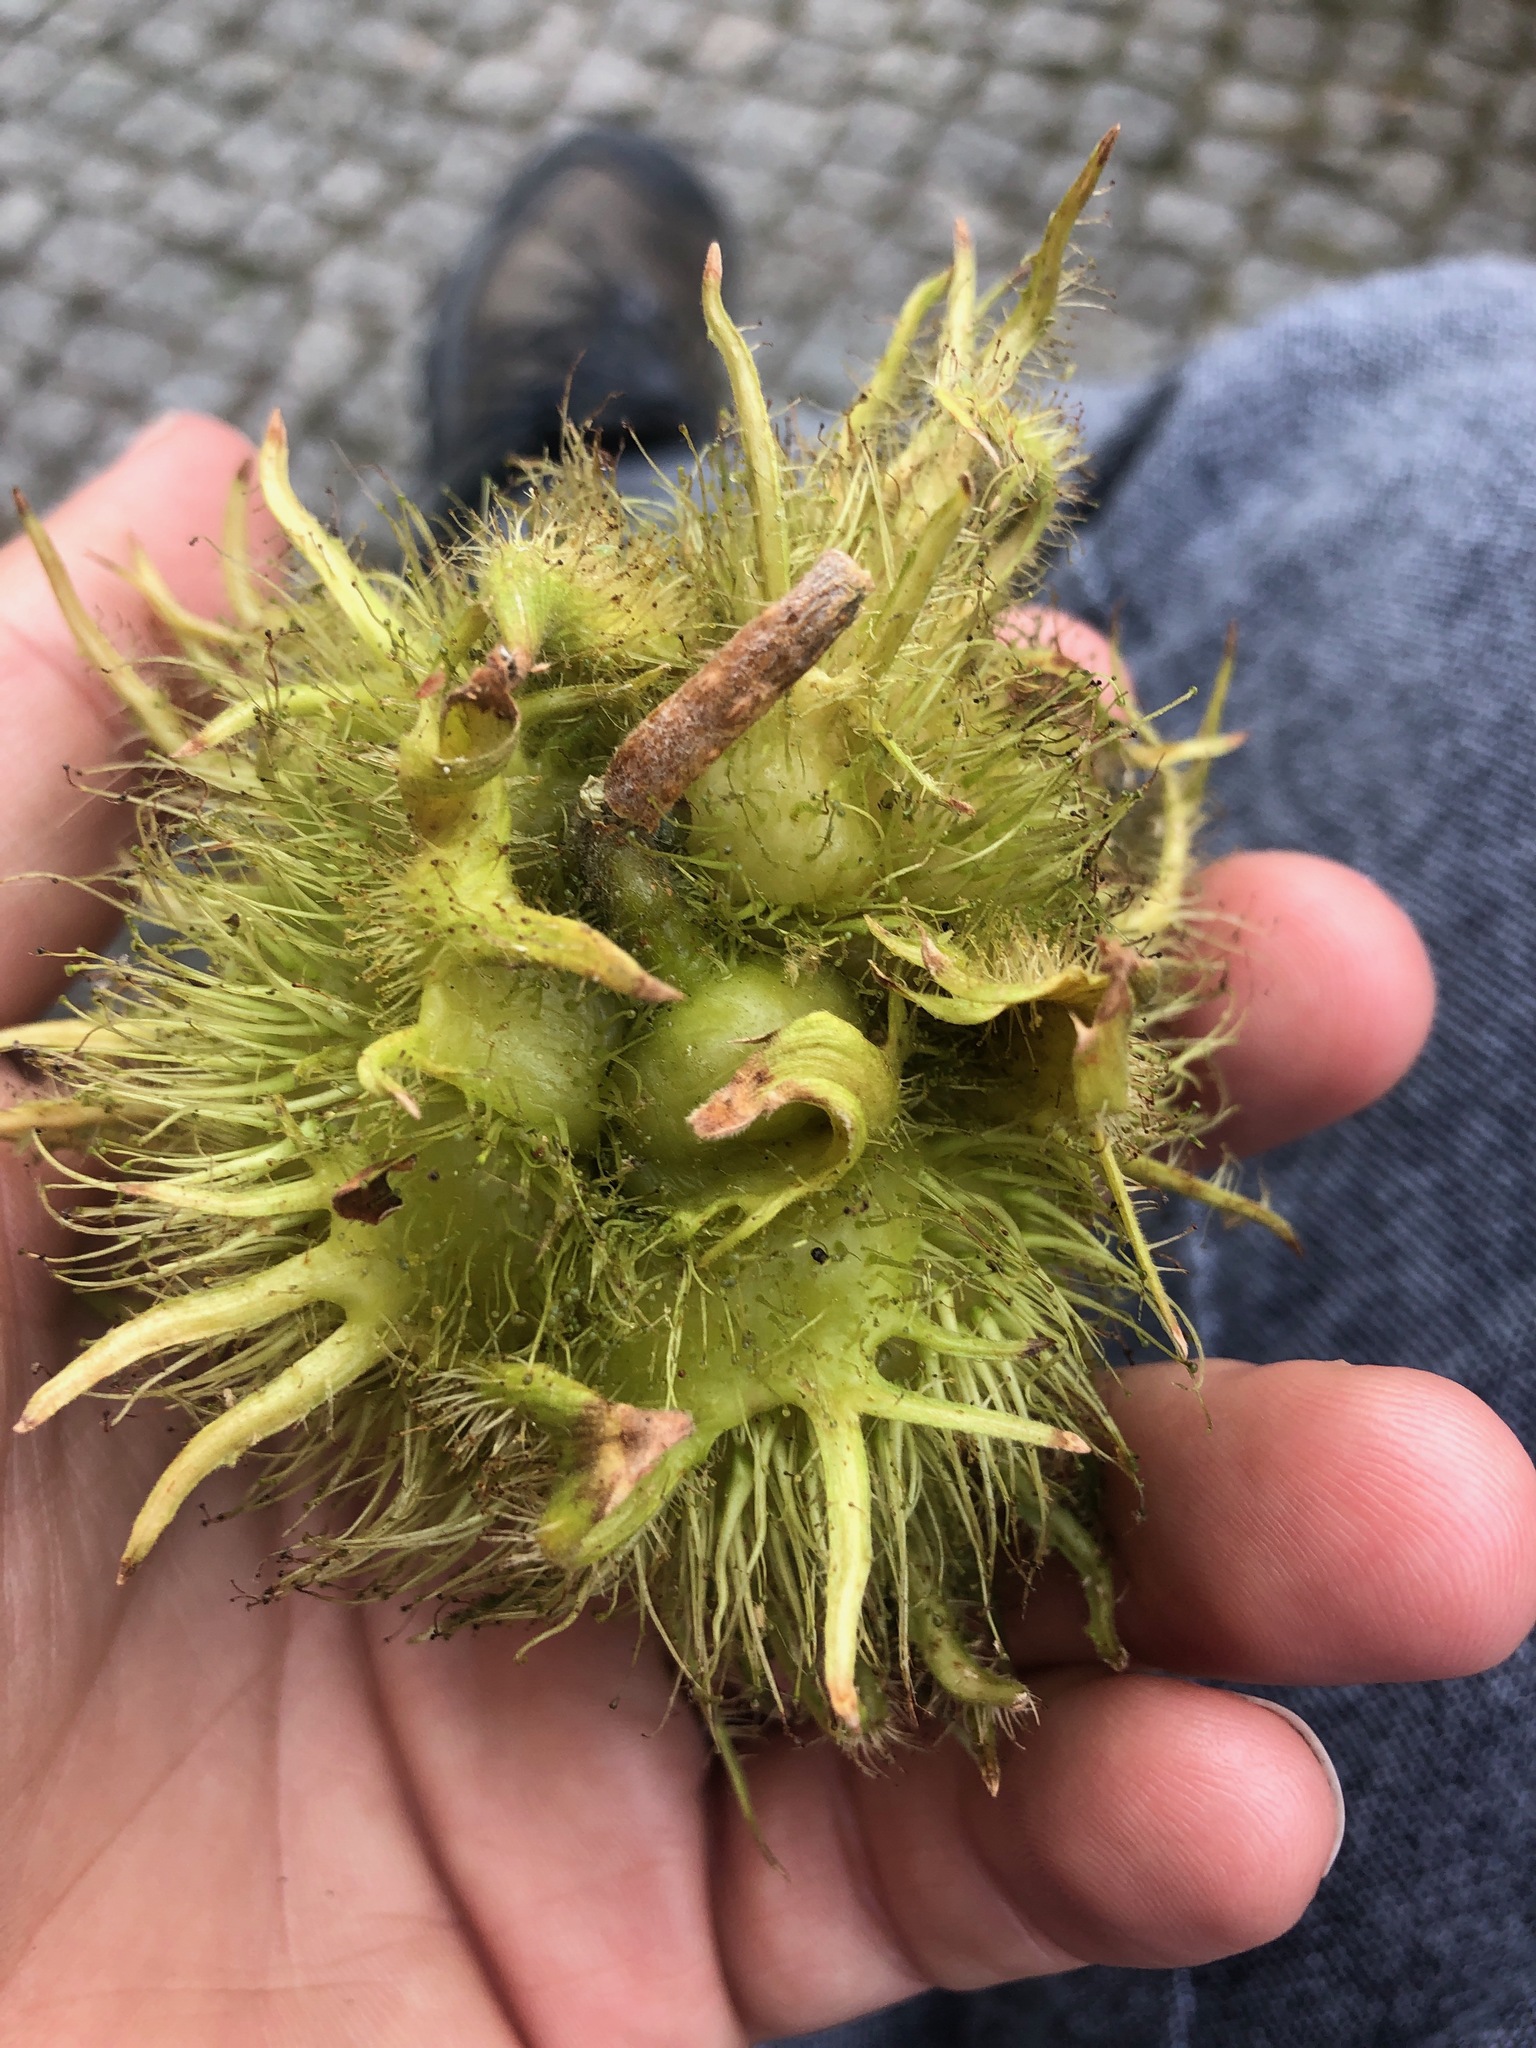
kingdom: Plantae
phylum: Tracheophyta
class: Magnoliopsida
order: Fagales
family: Betulaceae
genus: Corylus
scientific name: Corylus colurna
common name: Turkish hazel
